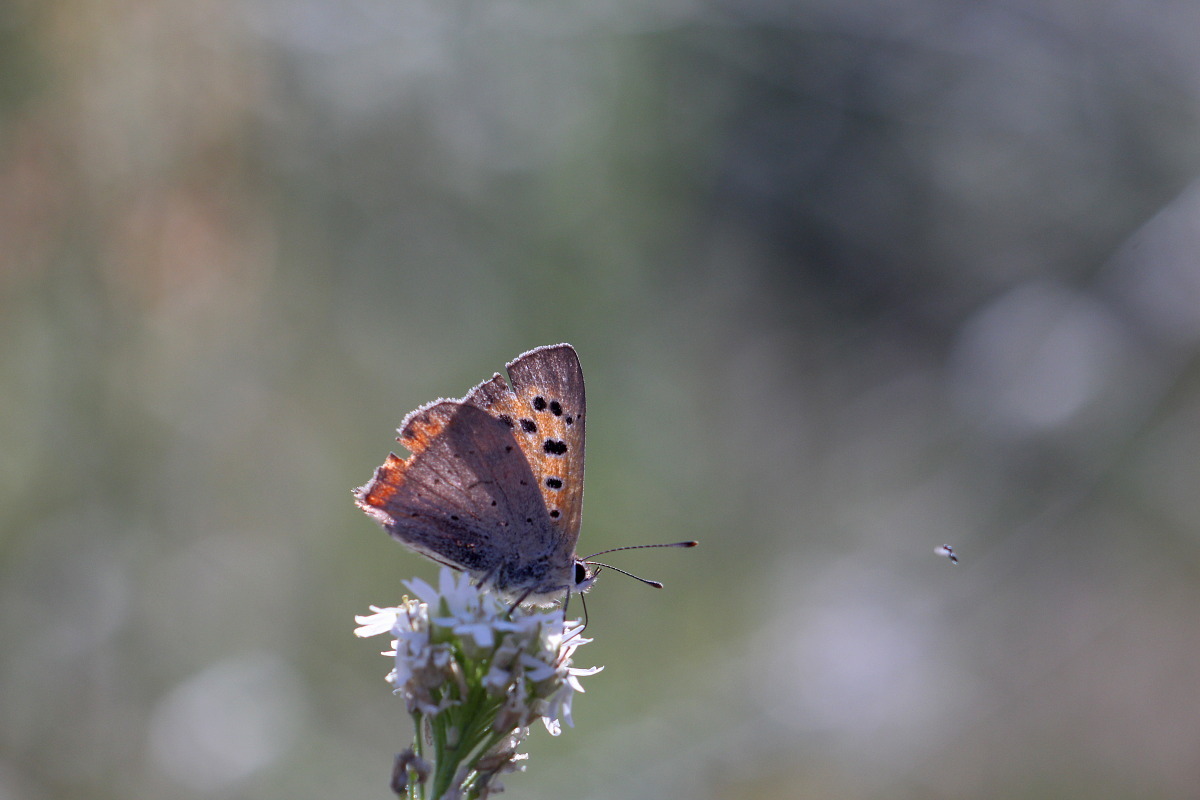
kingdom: Animalia
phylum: Arthropoda
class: Insecta
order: Lepidoptera
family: Lycaenidae
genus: Lycaena
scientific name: Lycaena phlaeas
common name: Small copper
